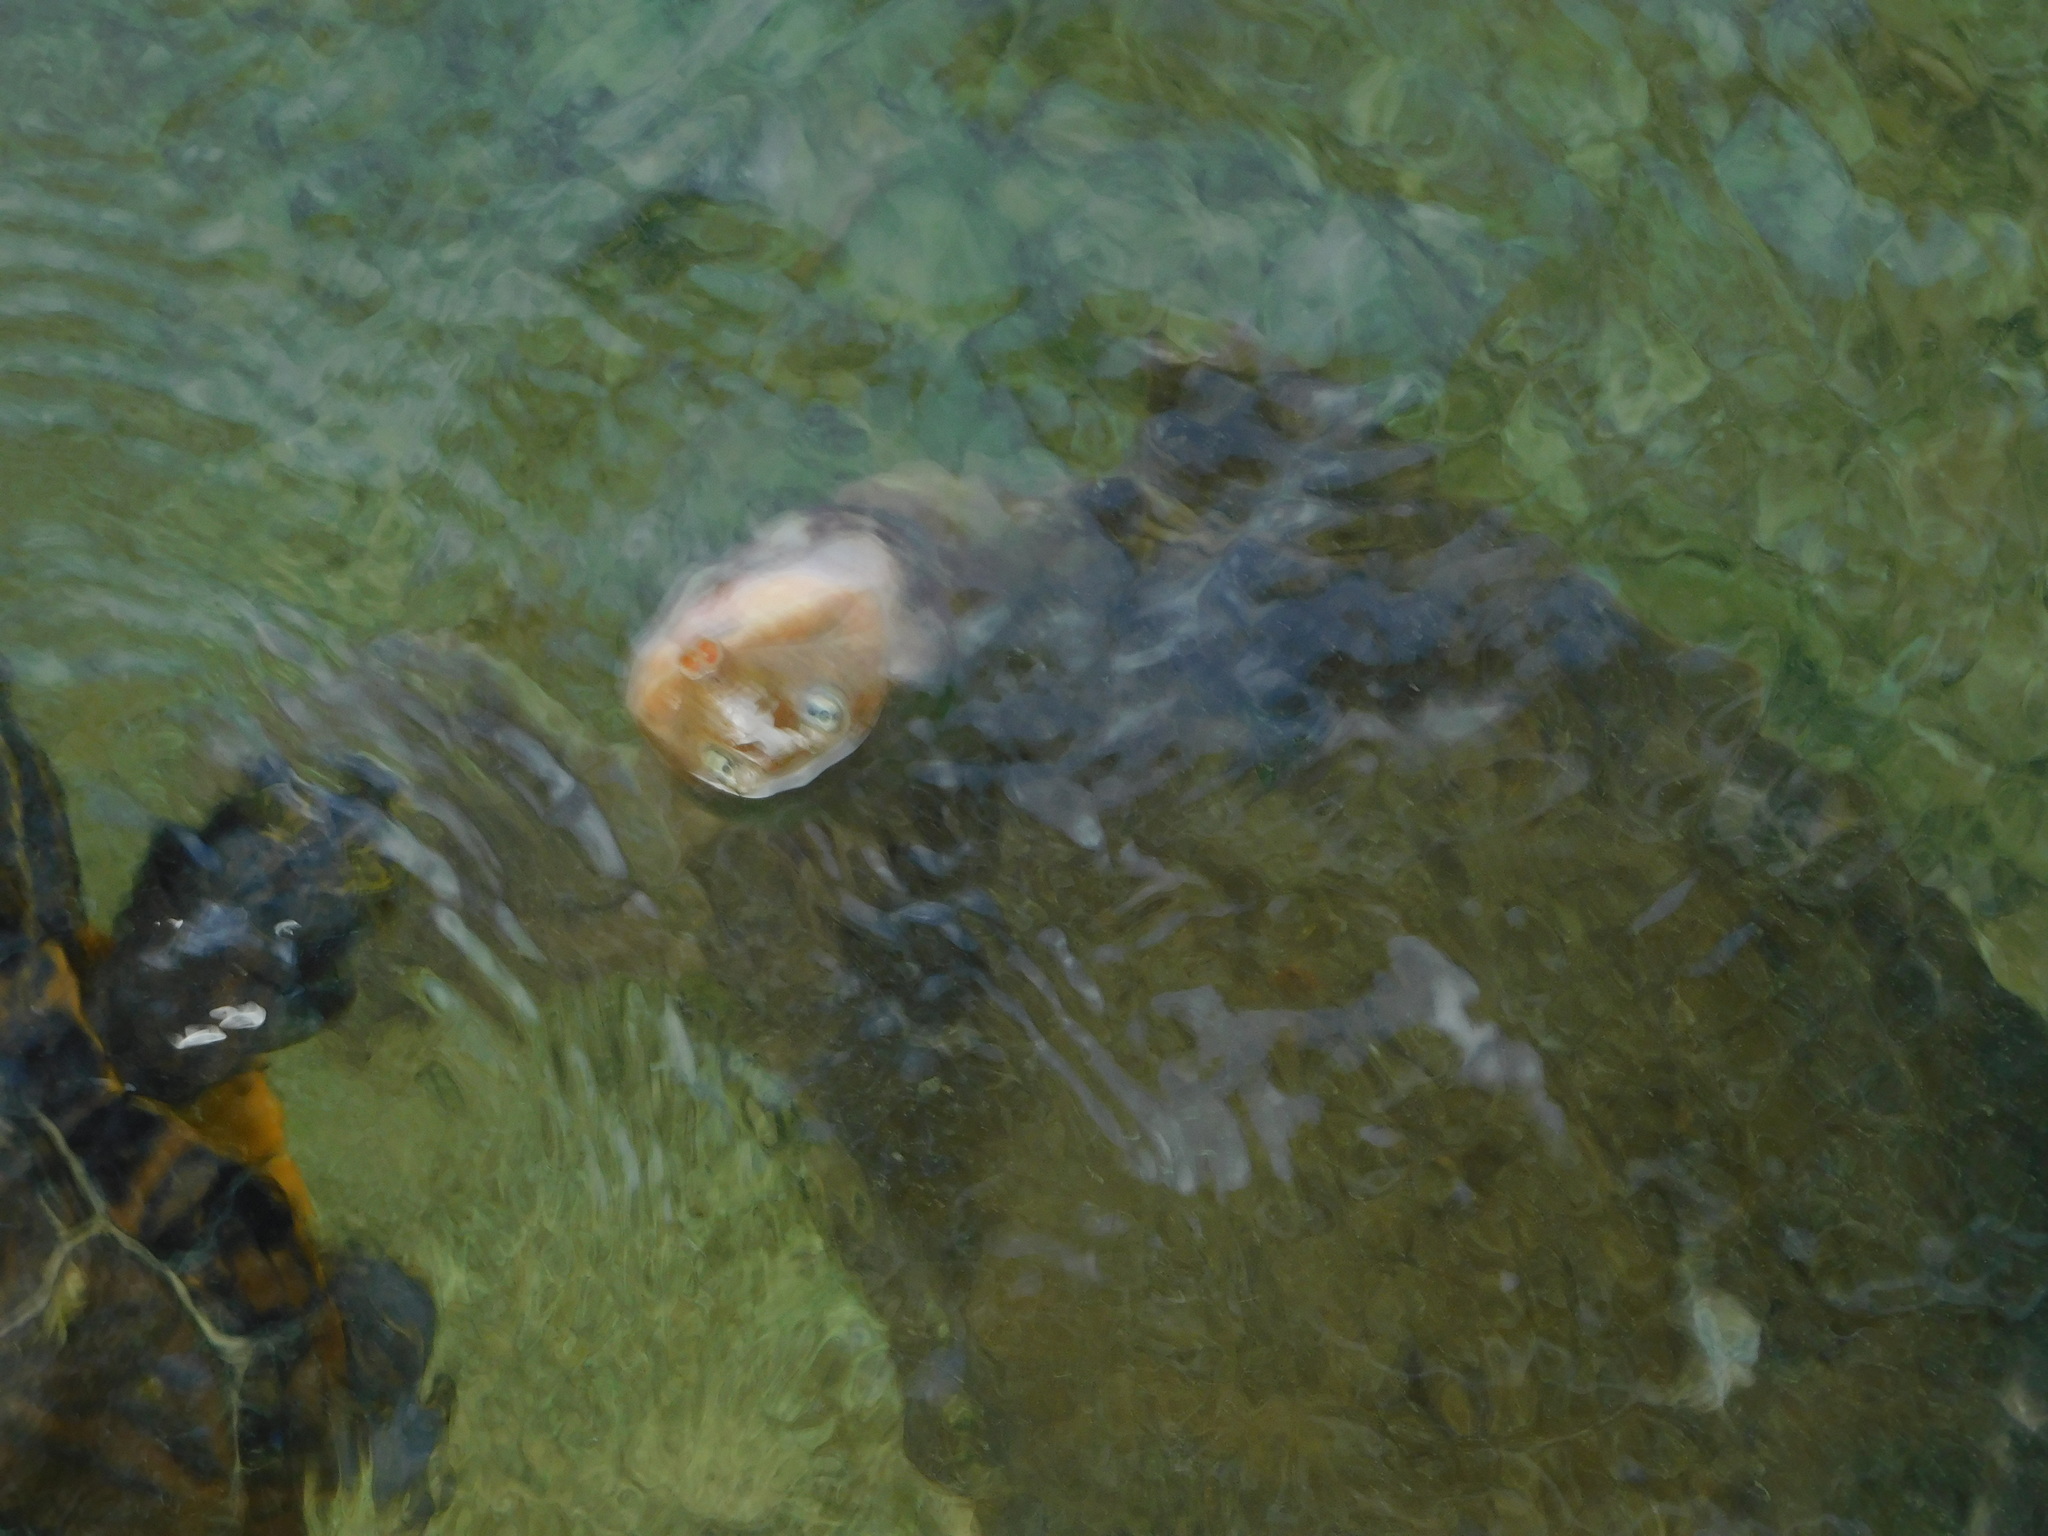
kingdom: Animalia
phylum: Chordata
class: Testudines
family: Trionychidae
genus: Apalone
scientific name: Apalone ferox
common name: Florida softshell turtle
